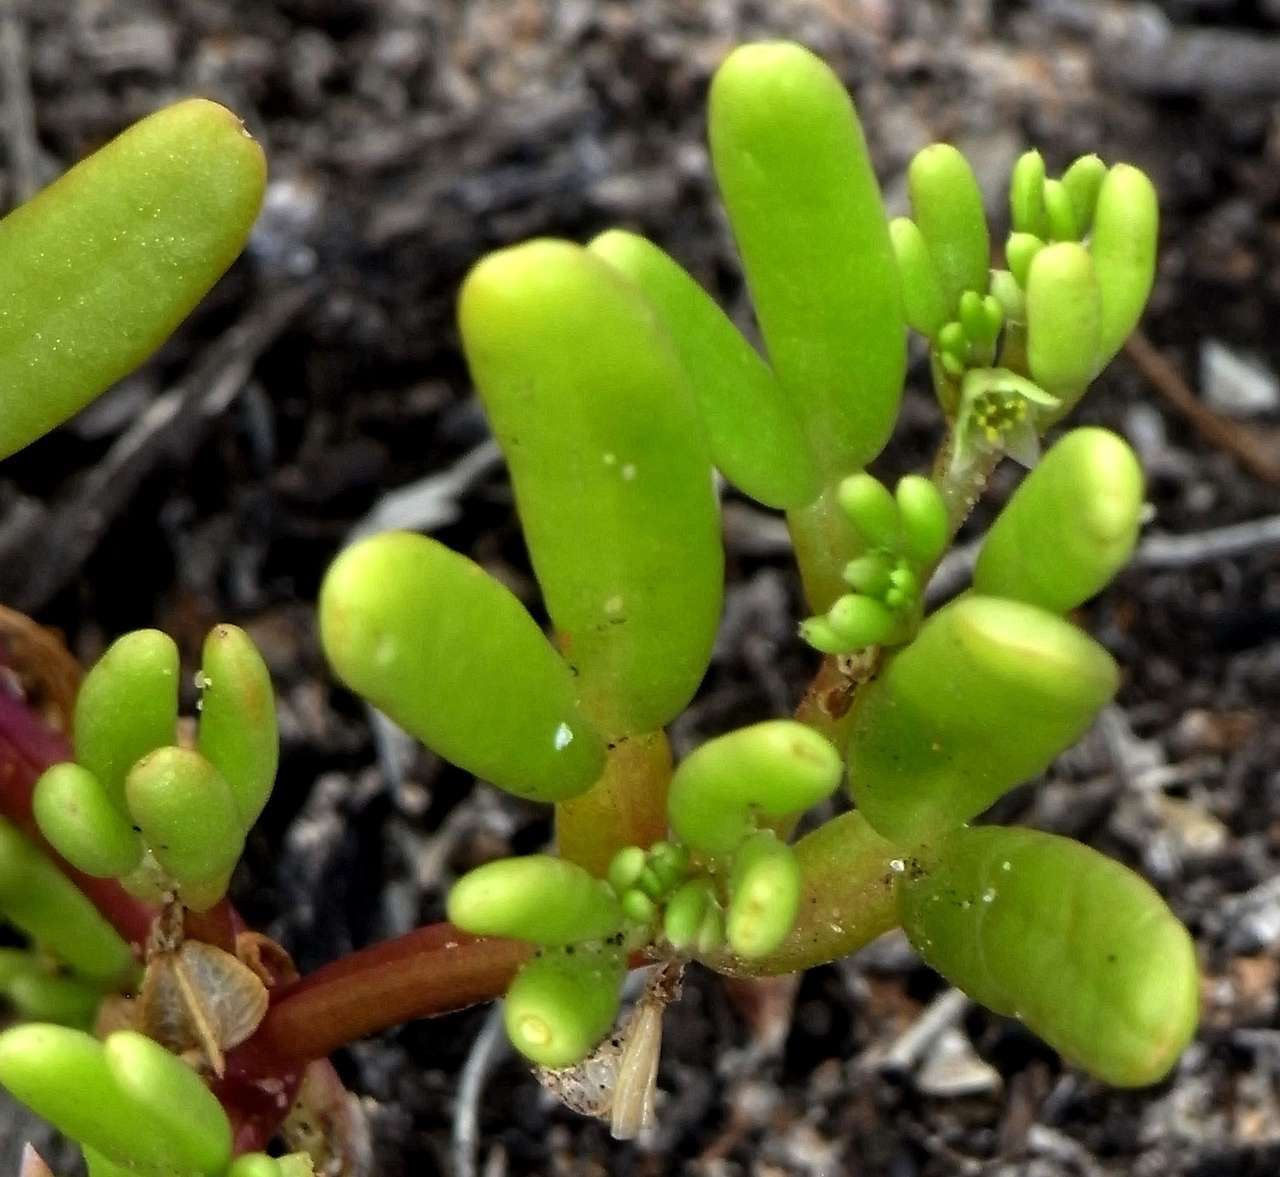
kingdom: Plantae
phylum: Tracheophyta
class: Magnoliopsida
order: Zygophyllales
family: Zygophyllaceae
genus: Roepera
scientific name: Roepera similis
